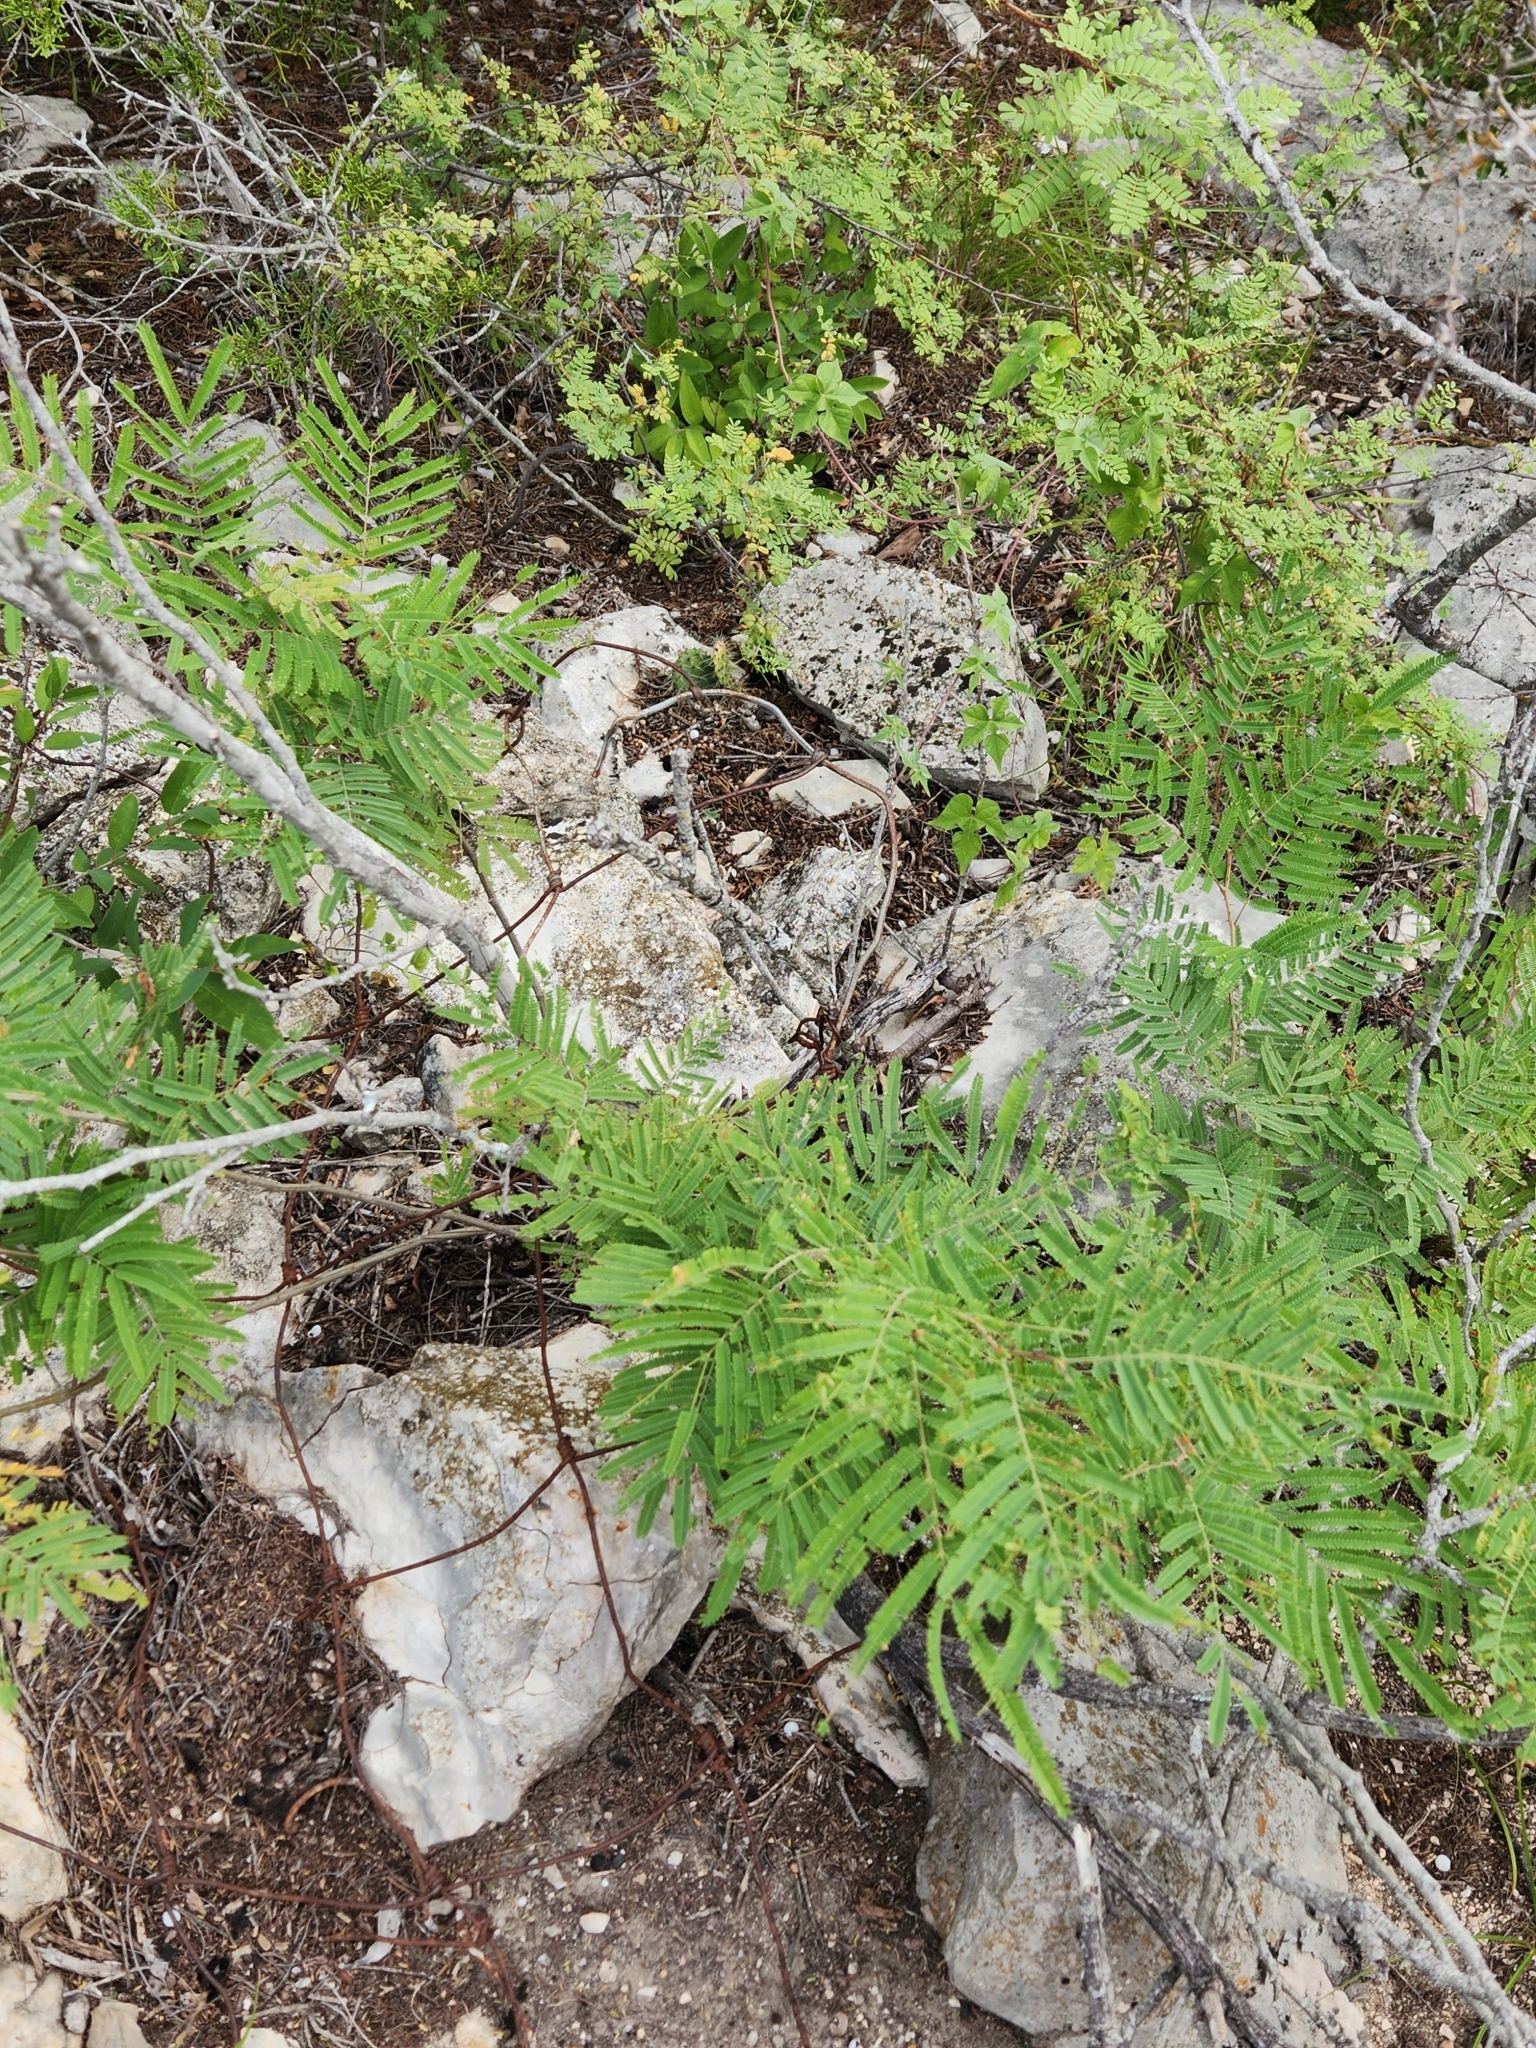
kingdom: Plantae
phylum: Tracheophyta
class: Magnoliopsida
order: Fabales
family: Fabaceae
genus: Senegalia
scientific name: Senegalia berlandieri
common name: Berlandier acacia
